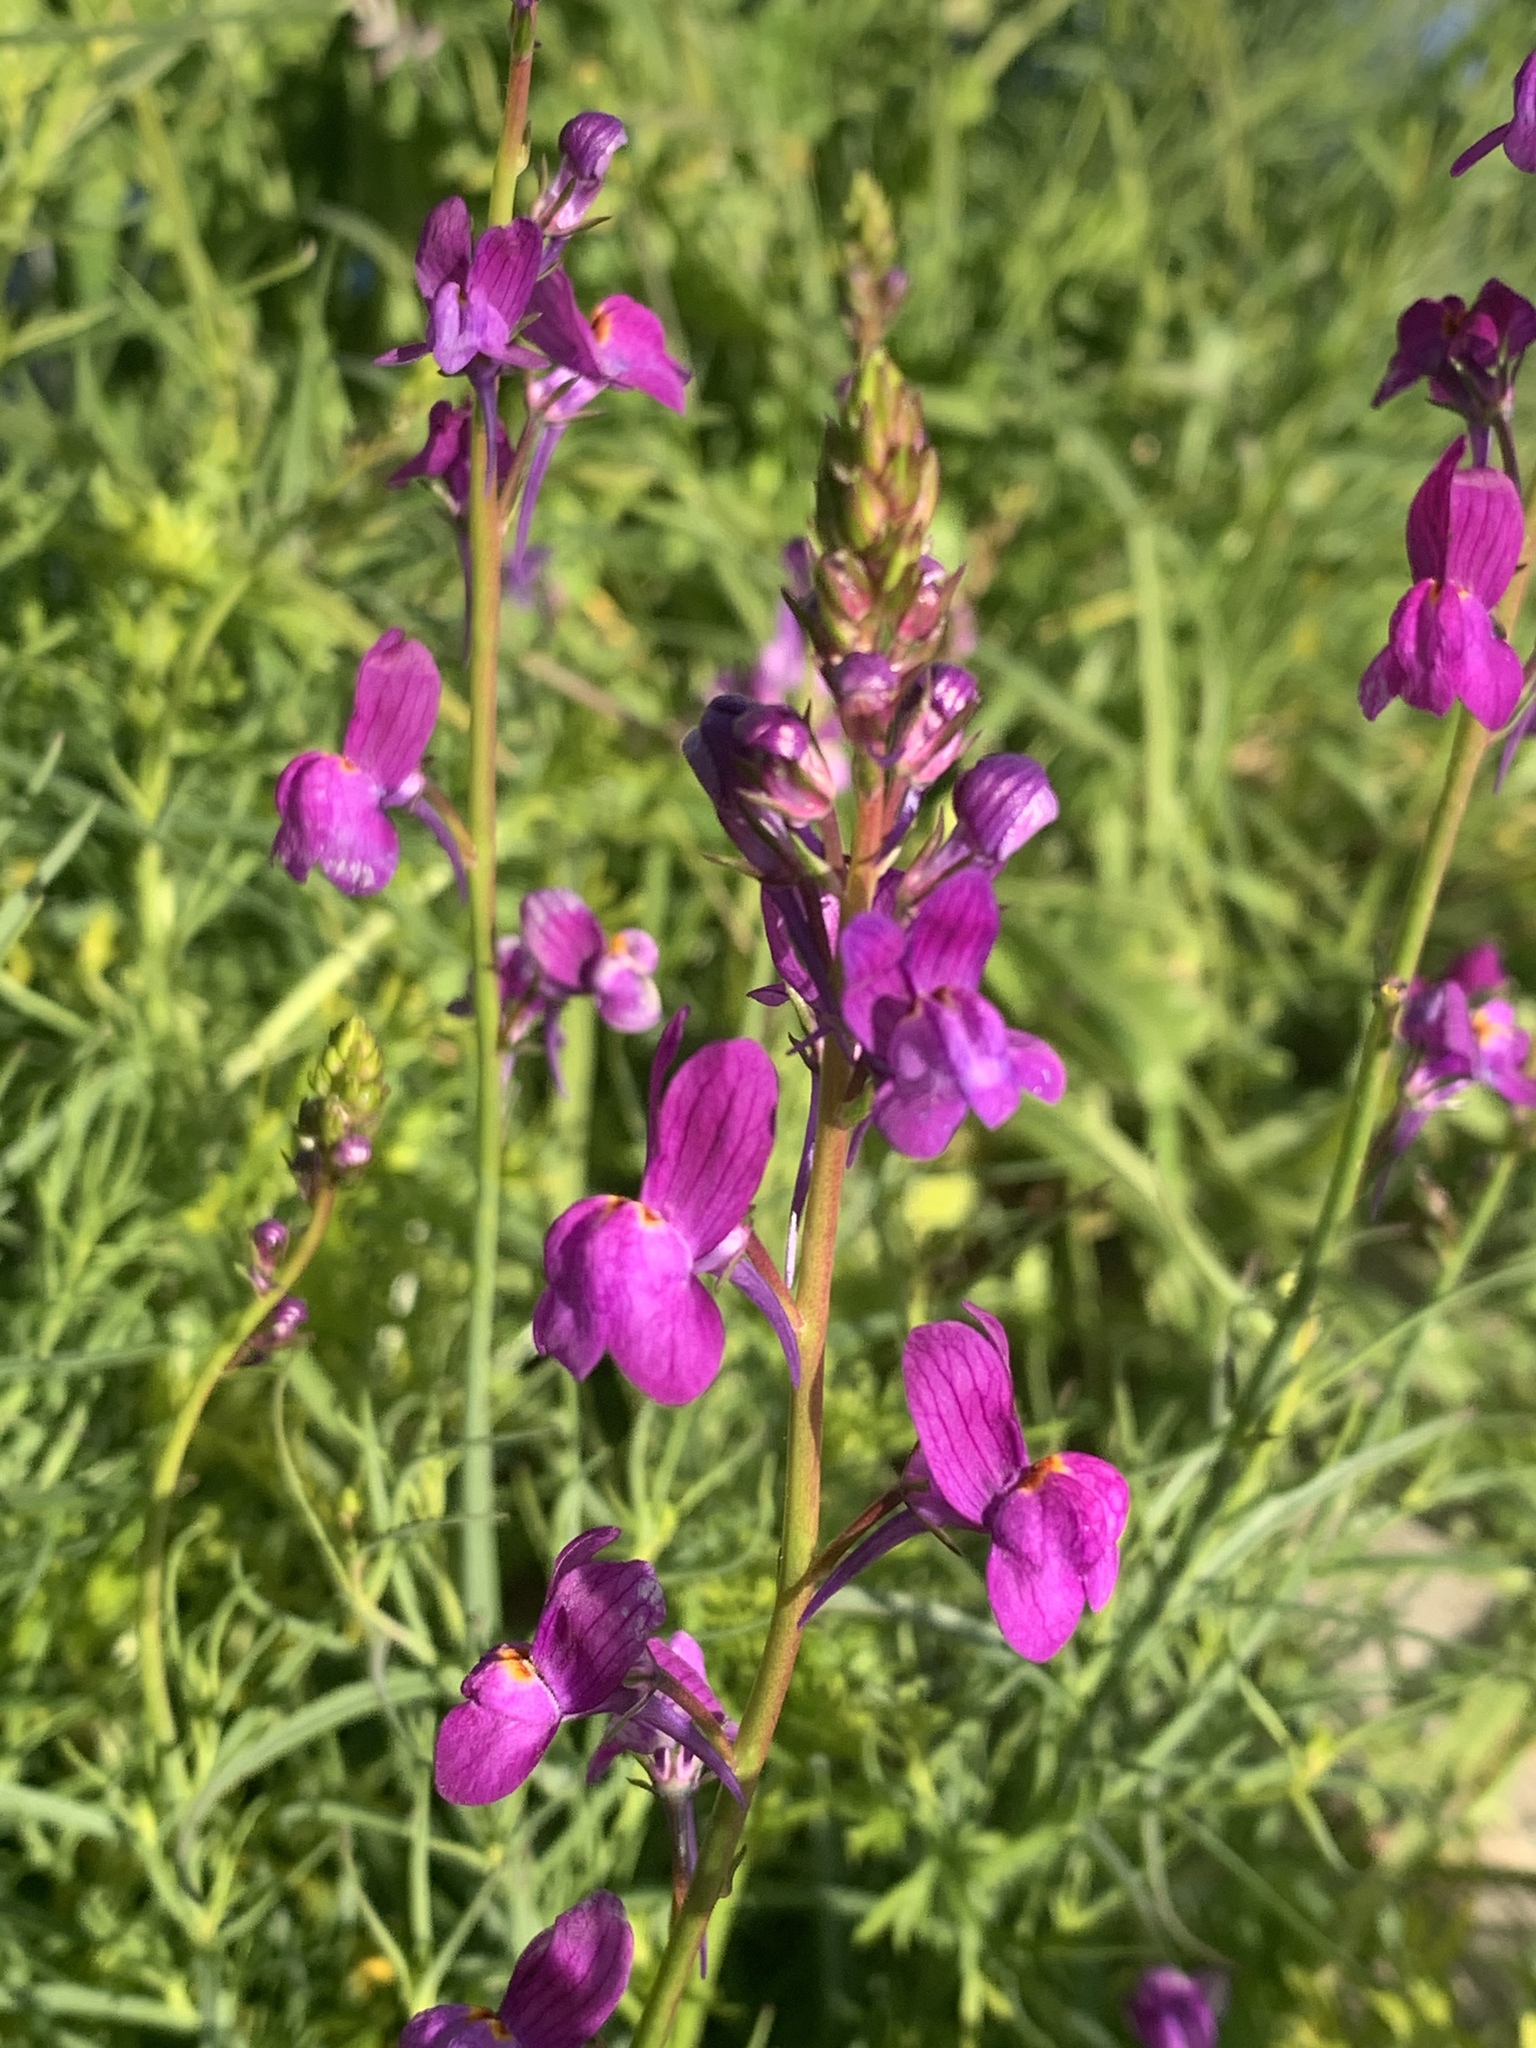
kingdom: Plantae
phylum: Tracheophyta
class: Magnoliopsida
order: Lamiales
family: Plantaginaceae
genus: Linaria
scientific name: Linaria maroccana
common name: Moroccan toadflax
